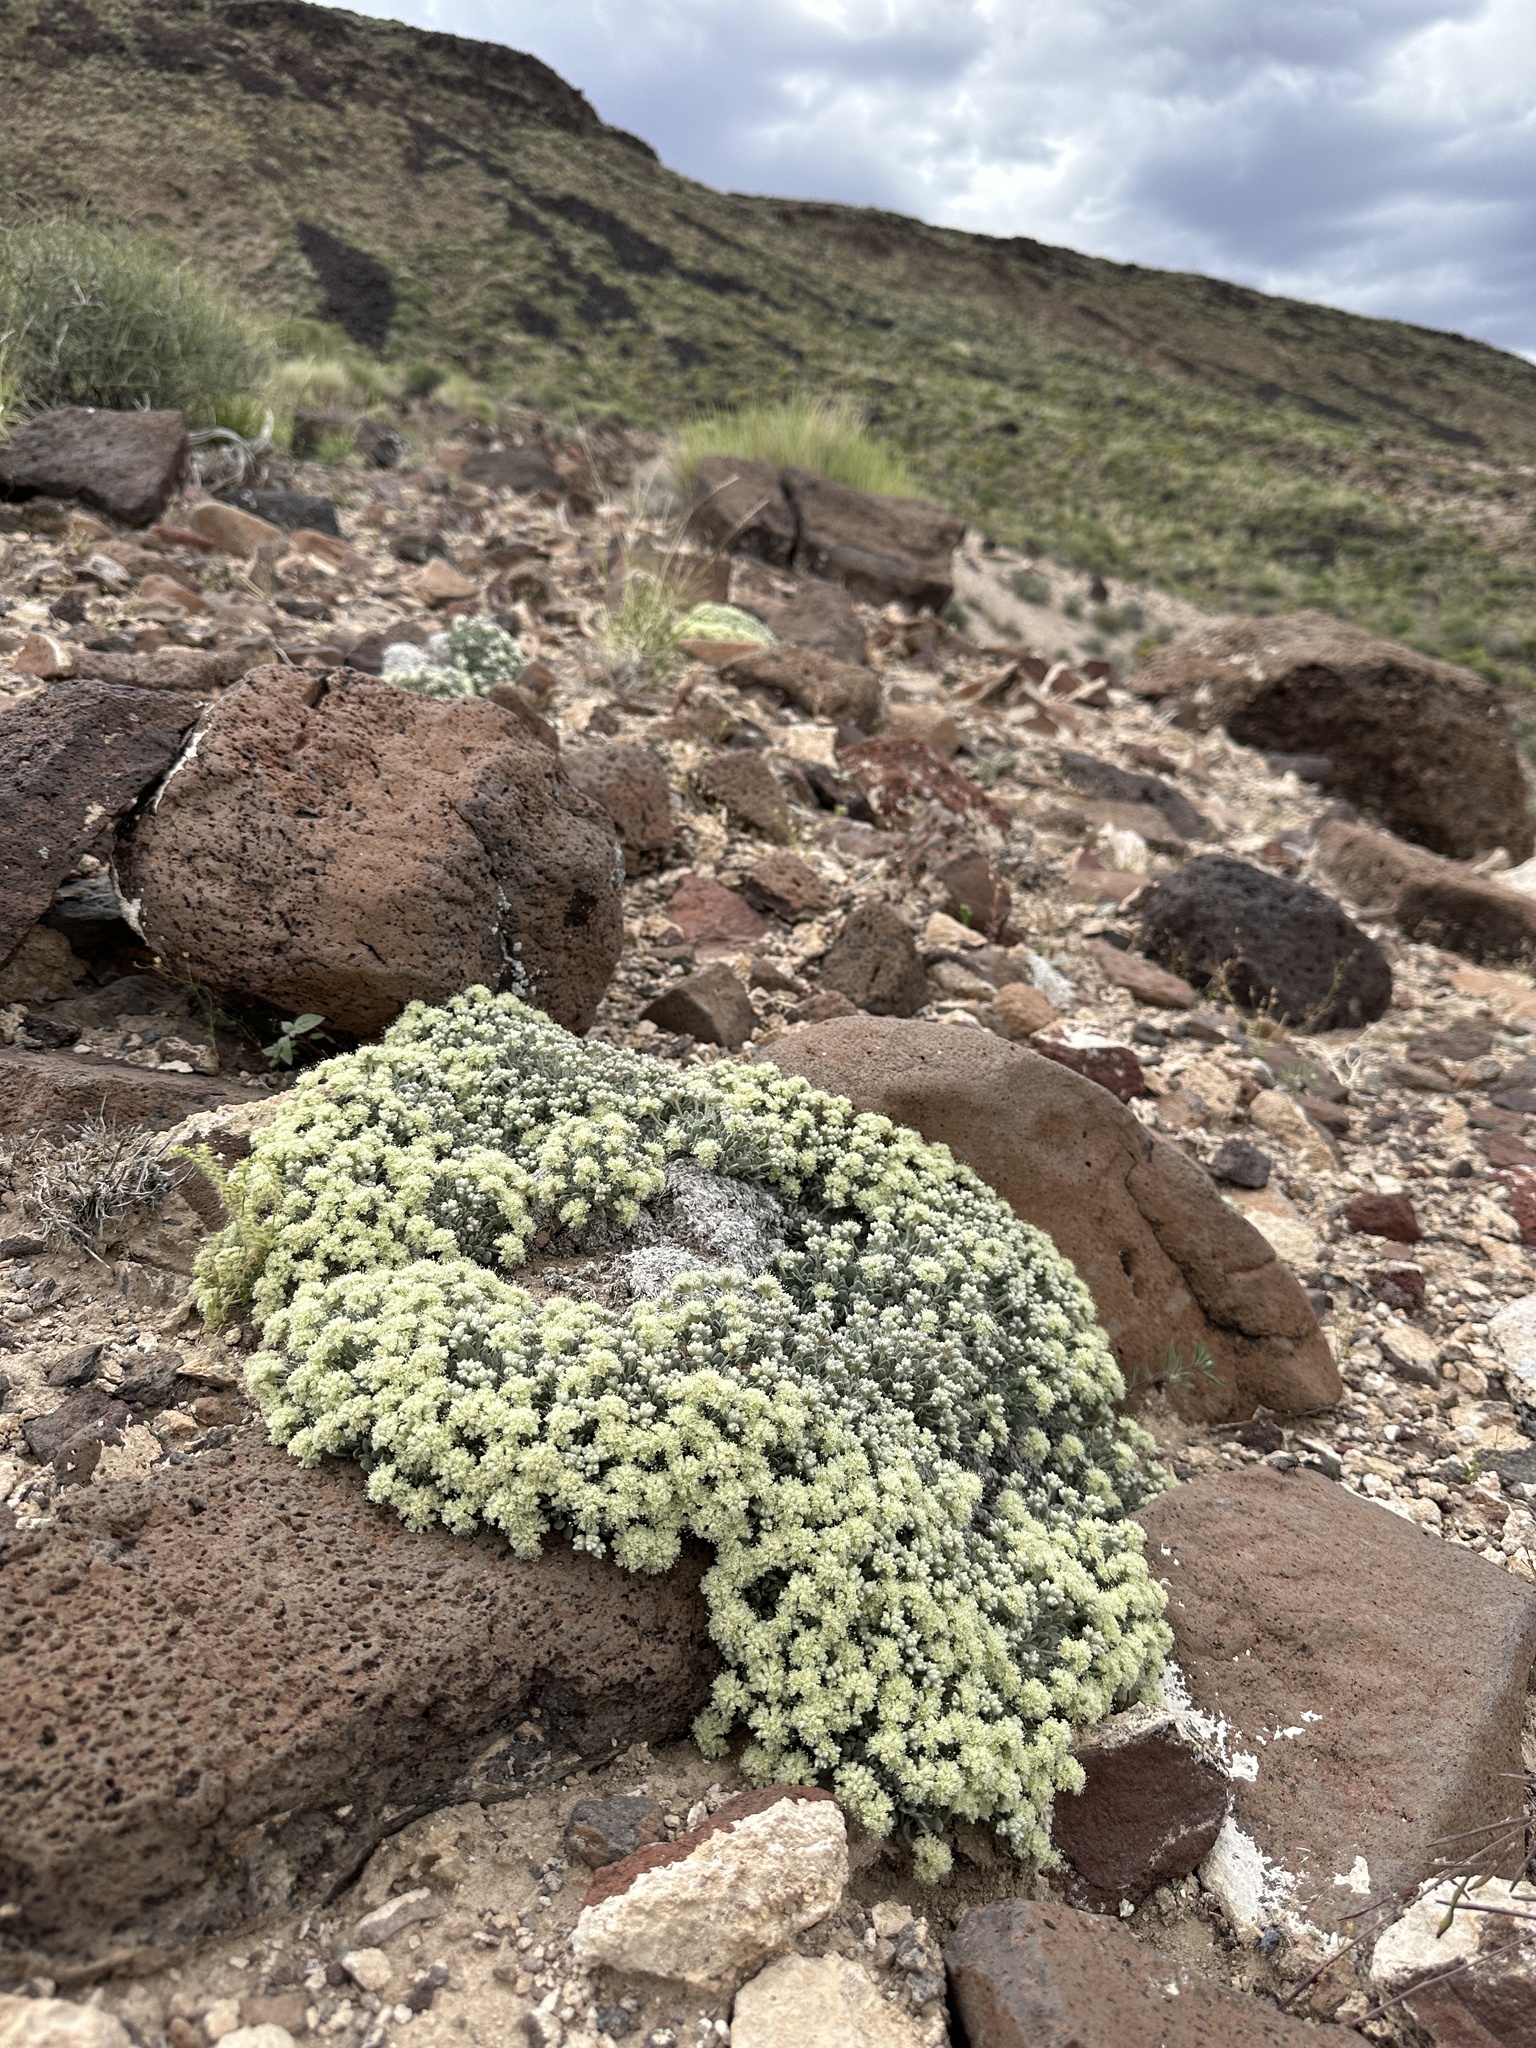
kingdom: Plantae
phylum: Tracheophyta
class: Magnoliopsida
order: Caryophyllales
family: Polygonaceae
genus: Eriogonum
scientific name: Eriogonum shockleyi
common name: Shockley's wild buckwheat
